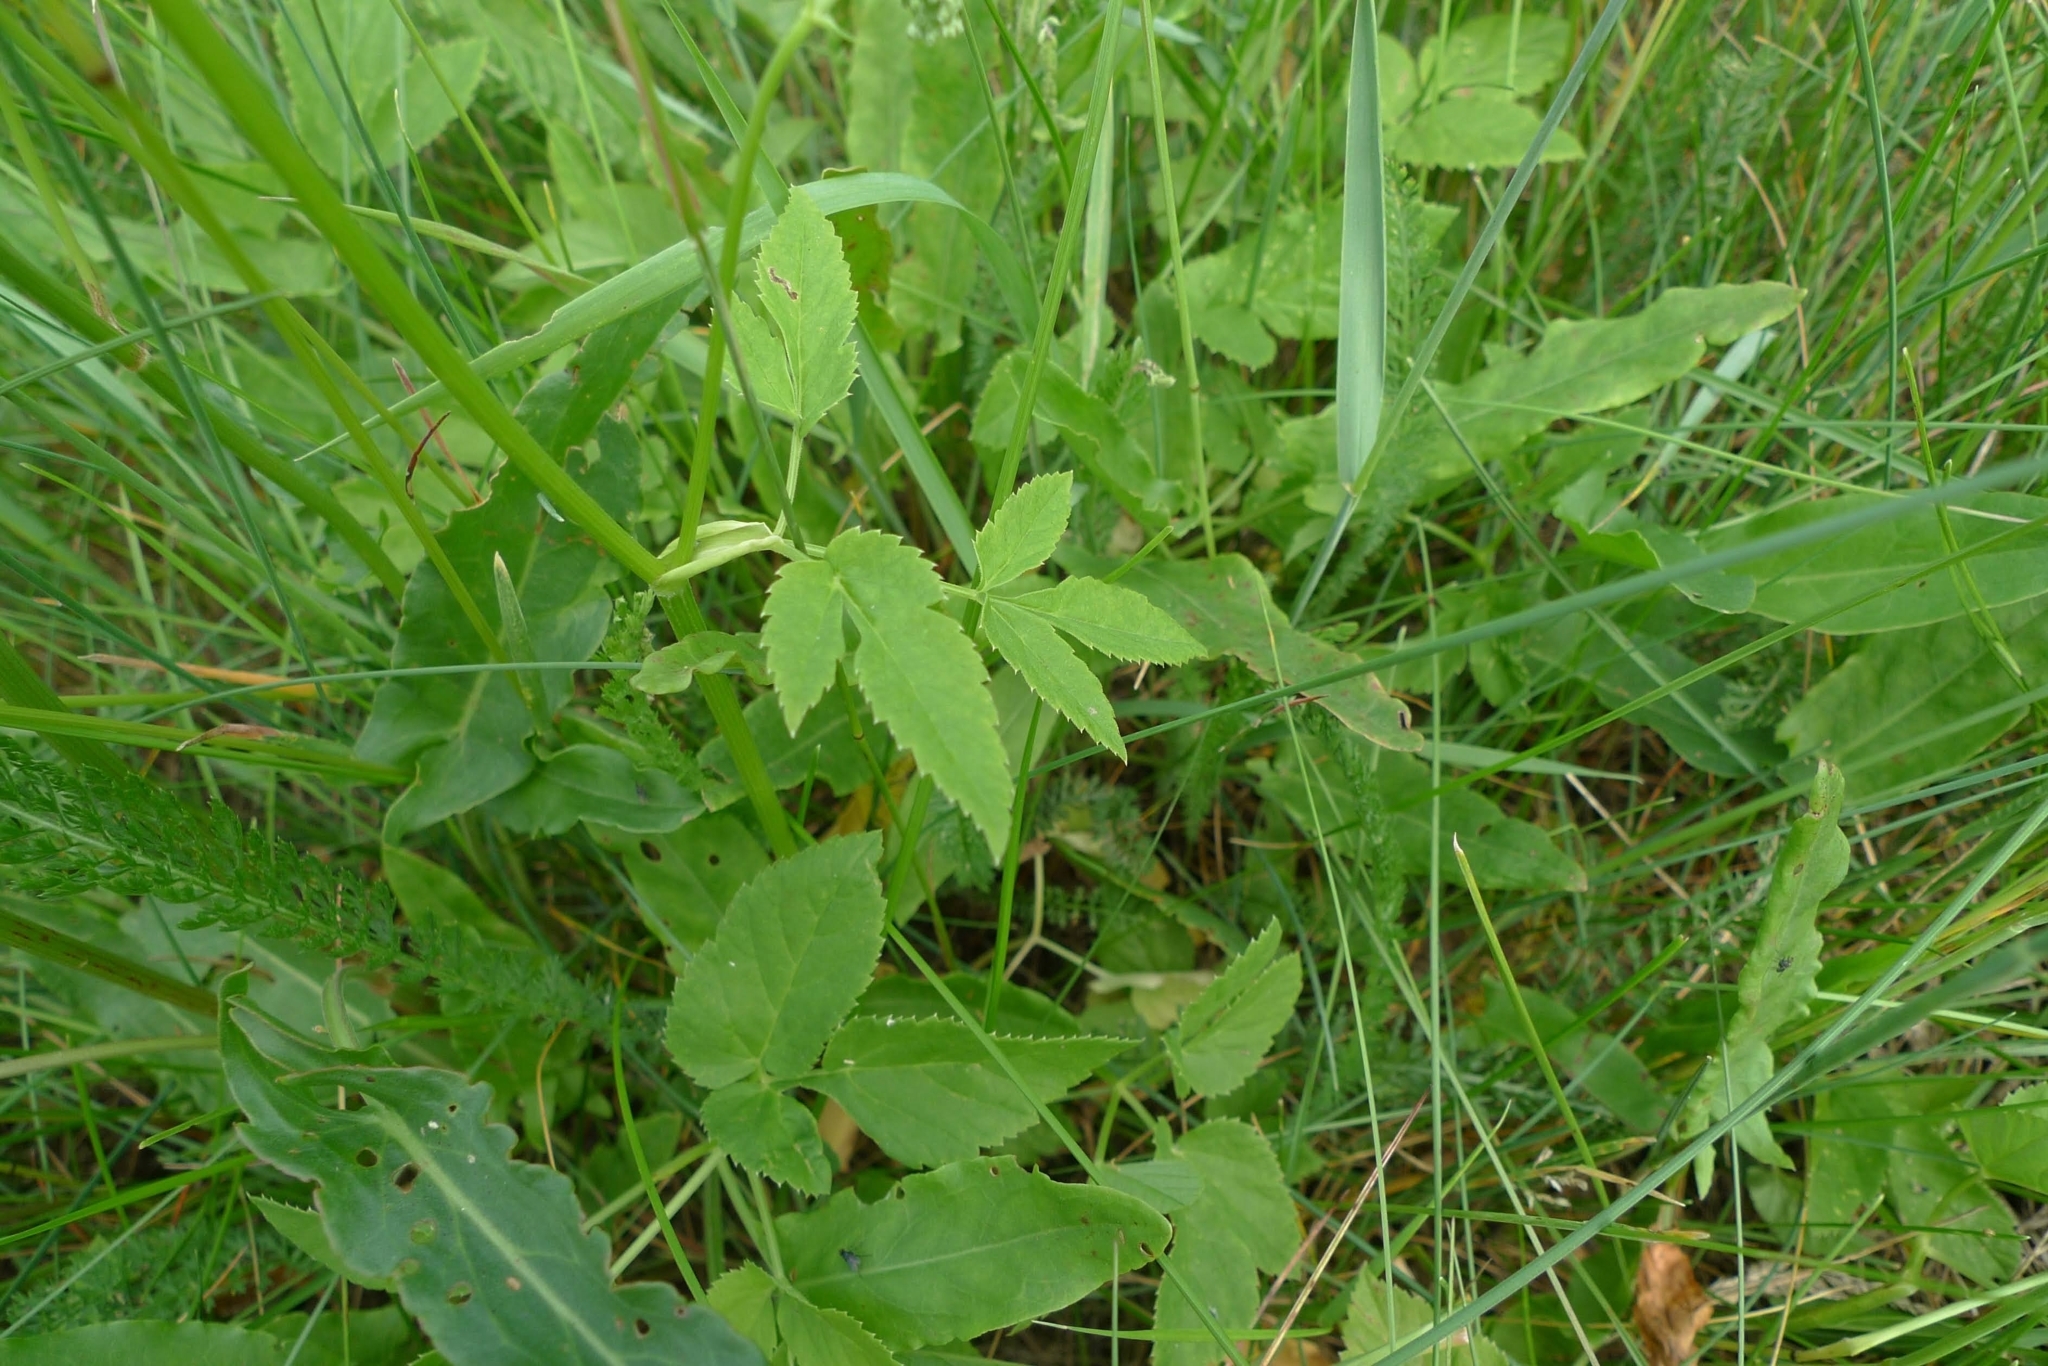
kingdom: Plantae
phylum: Tracheophyta
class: Magnoliopsida
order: Apiales
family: Apiaceae
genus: Aegopodium
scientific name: Aegopodium podagraria
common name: Ground-elder
